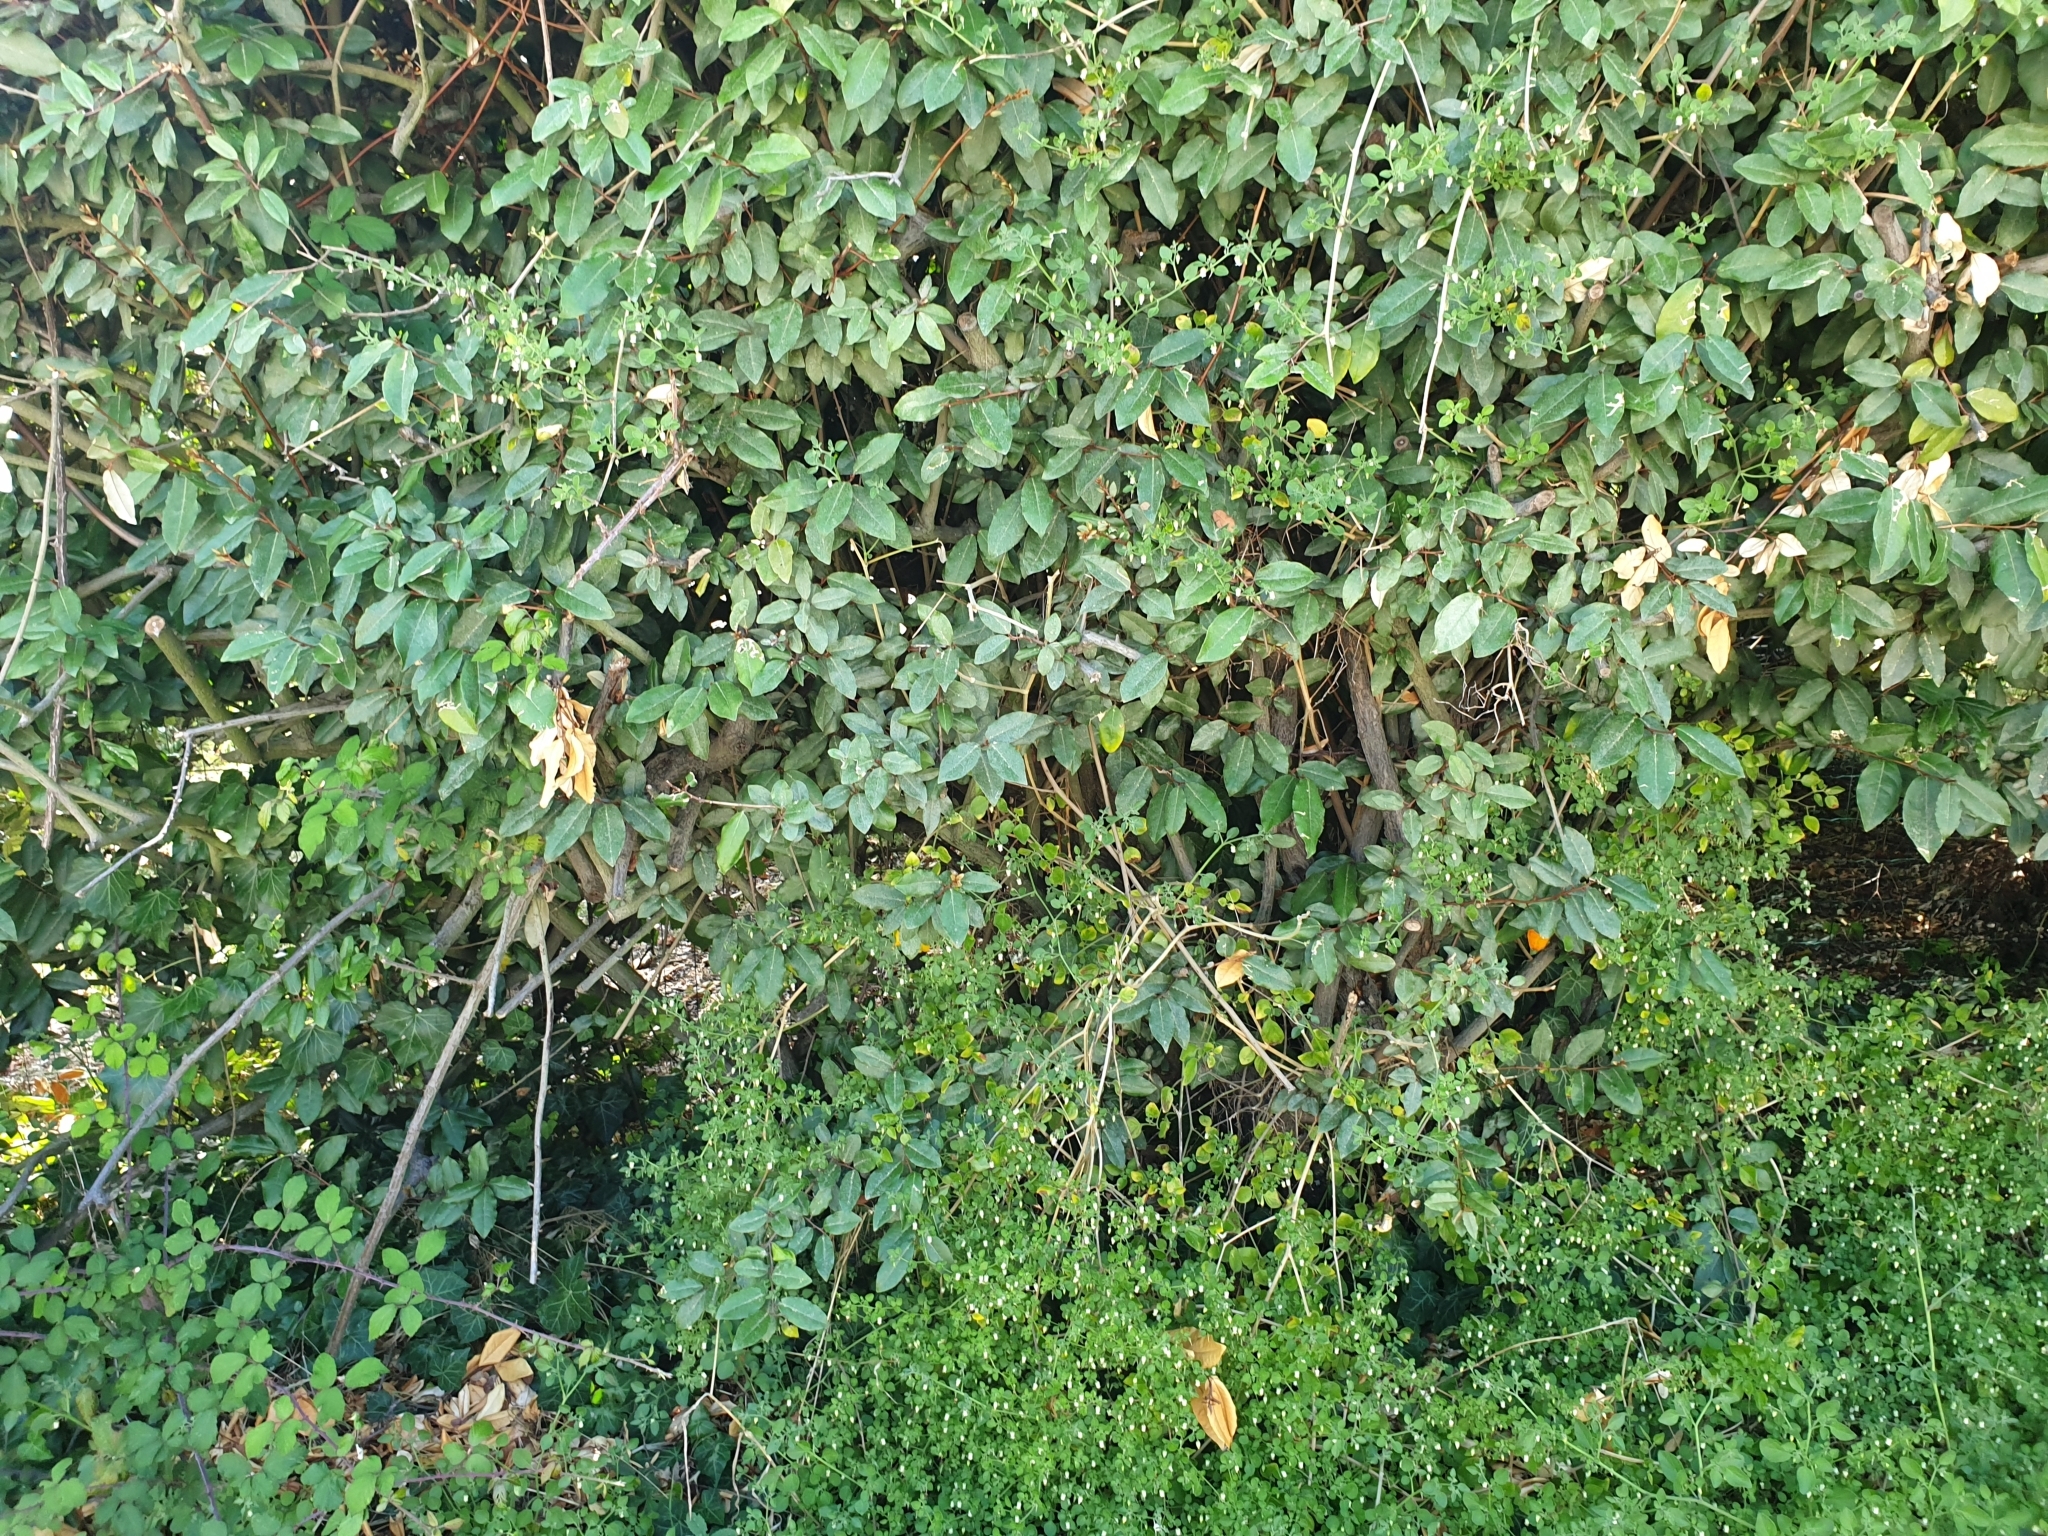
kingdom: Plantae
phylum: Tracheophyta
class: Magnoliopsida
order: Solanales
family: Solanaceae
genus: Salpichroa
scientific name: Salpichroa origanifolia
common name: Lily-of-the-valley-vine
